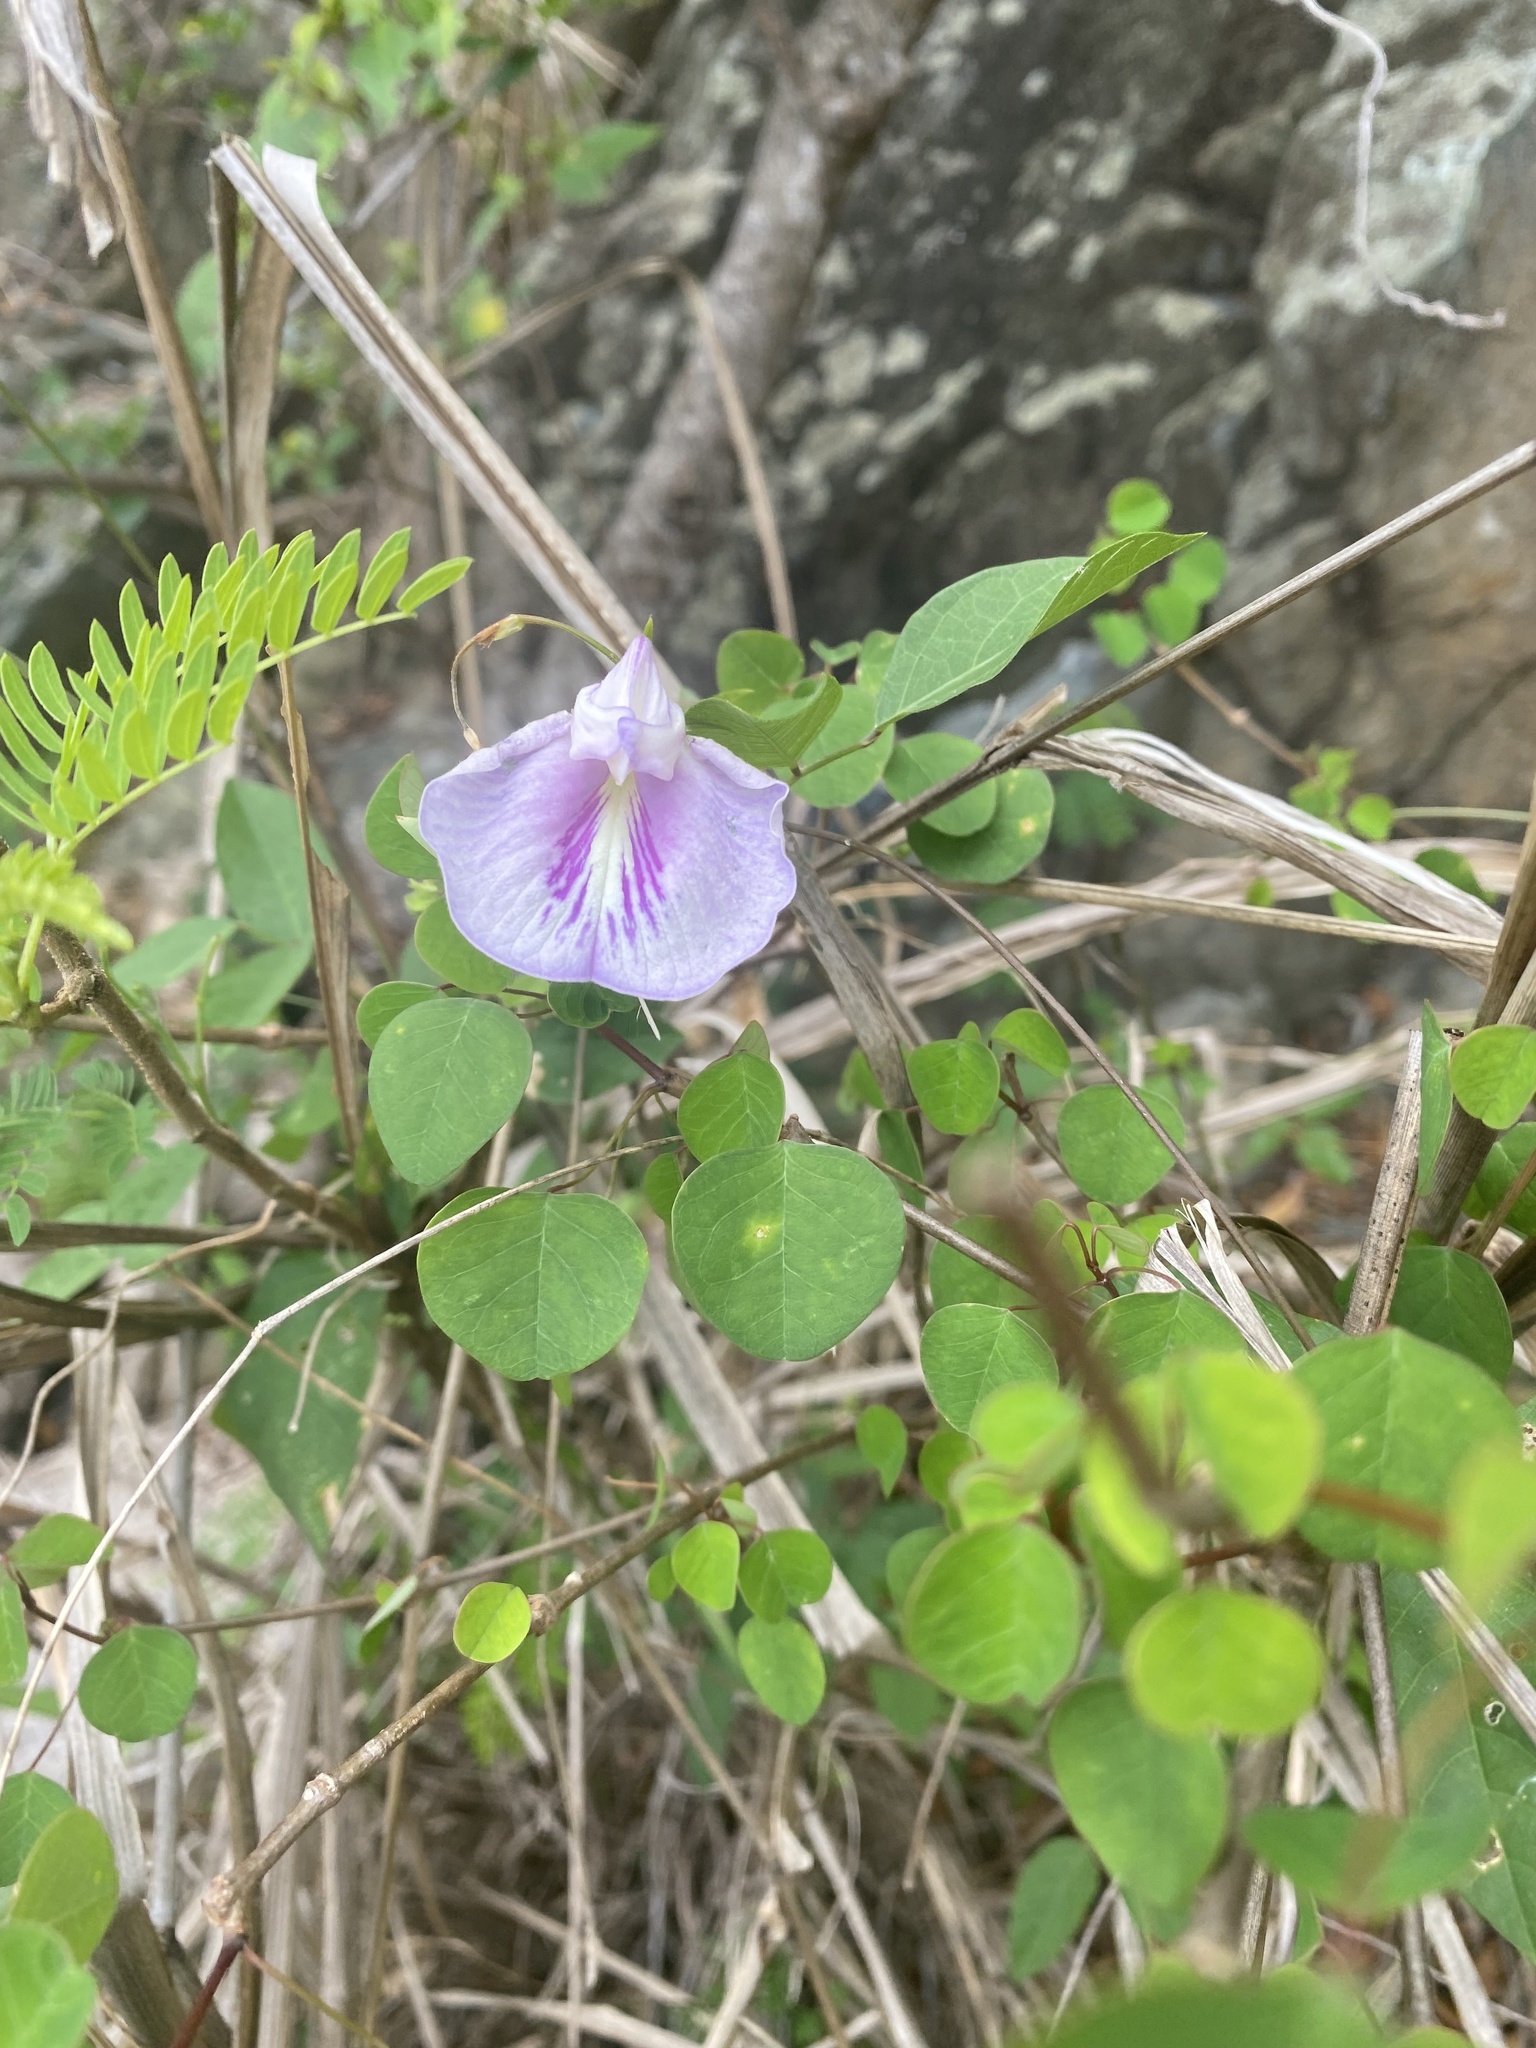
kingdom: Plantae
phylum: Tracheophyta
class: Magnoliopsida
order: Fabales
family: Fabaceae
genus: Centrosema
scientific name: Centrosema pubescens
